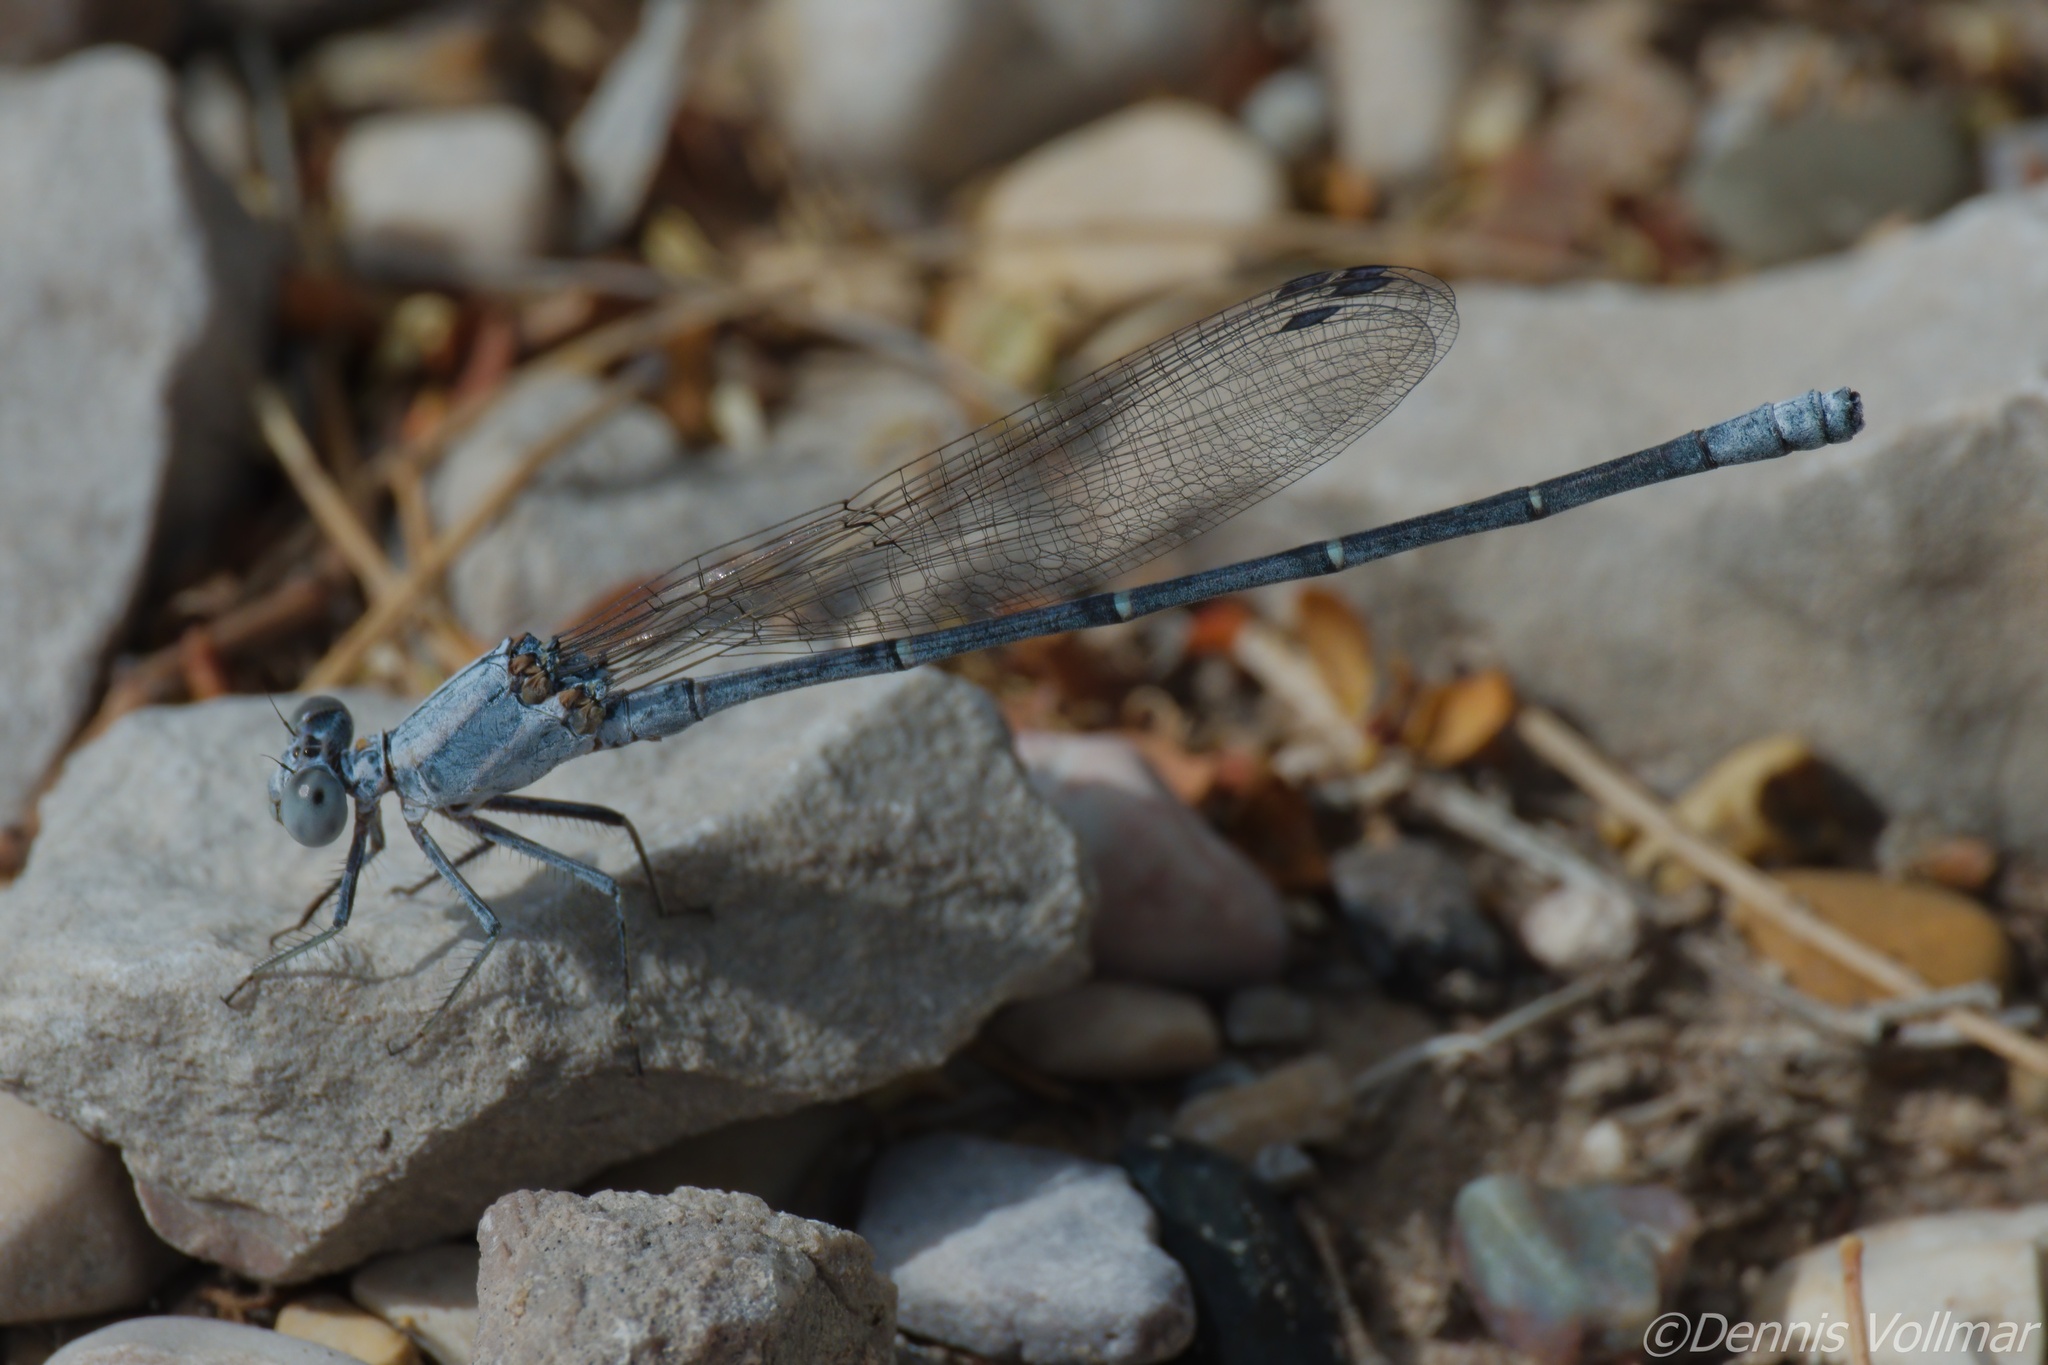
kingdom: Animalia
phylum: Arthropoda
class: Insecta
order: Odonata
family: Coenagrionidae
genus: Argia
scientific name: Argia moesta
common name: Powdered dancer
